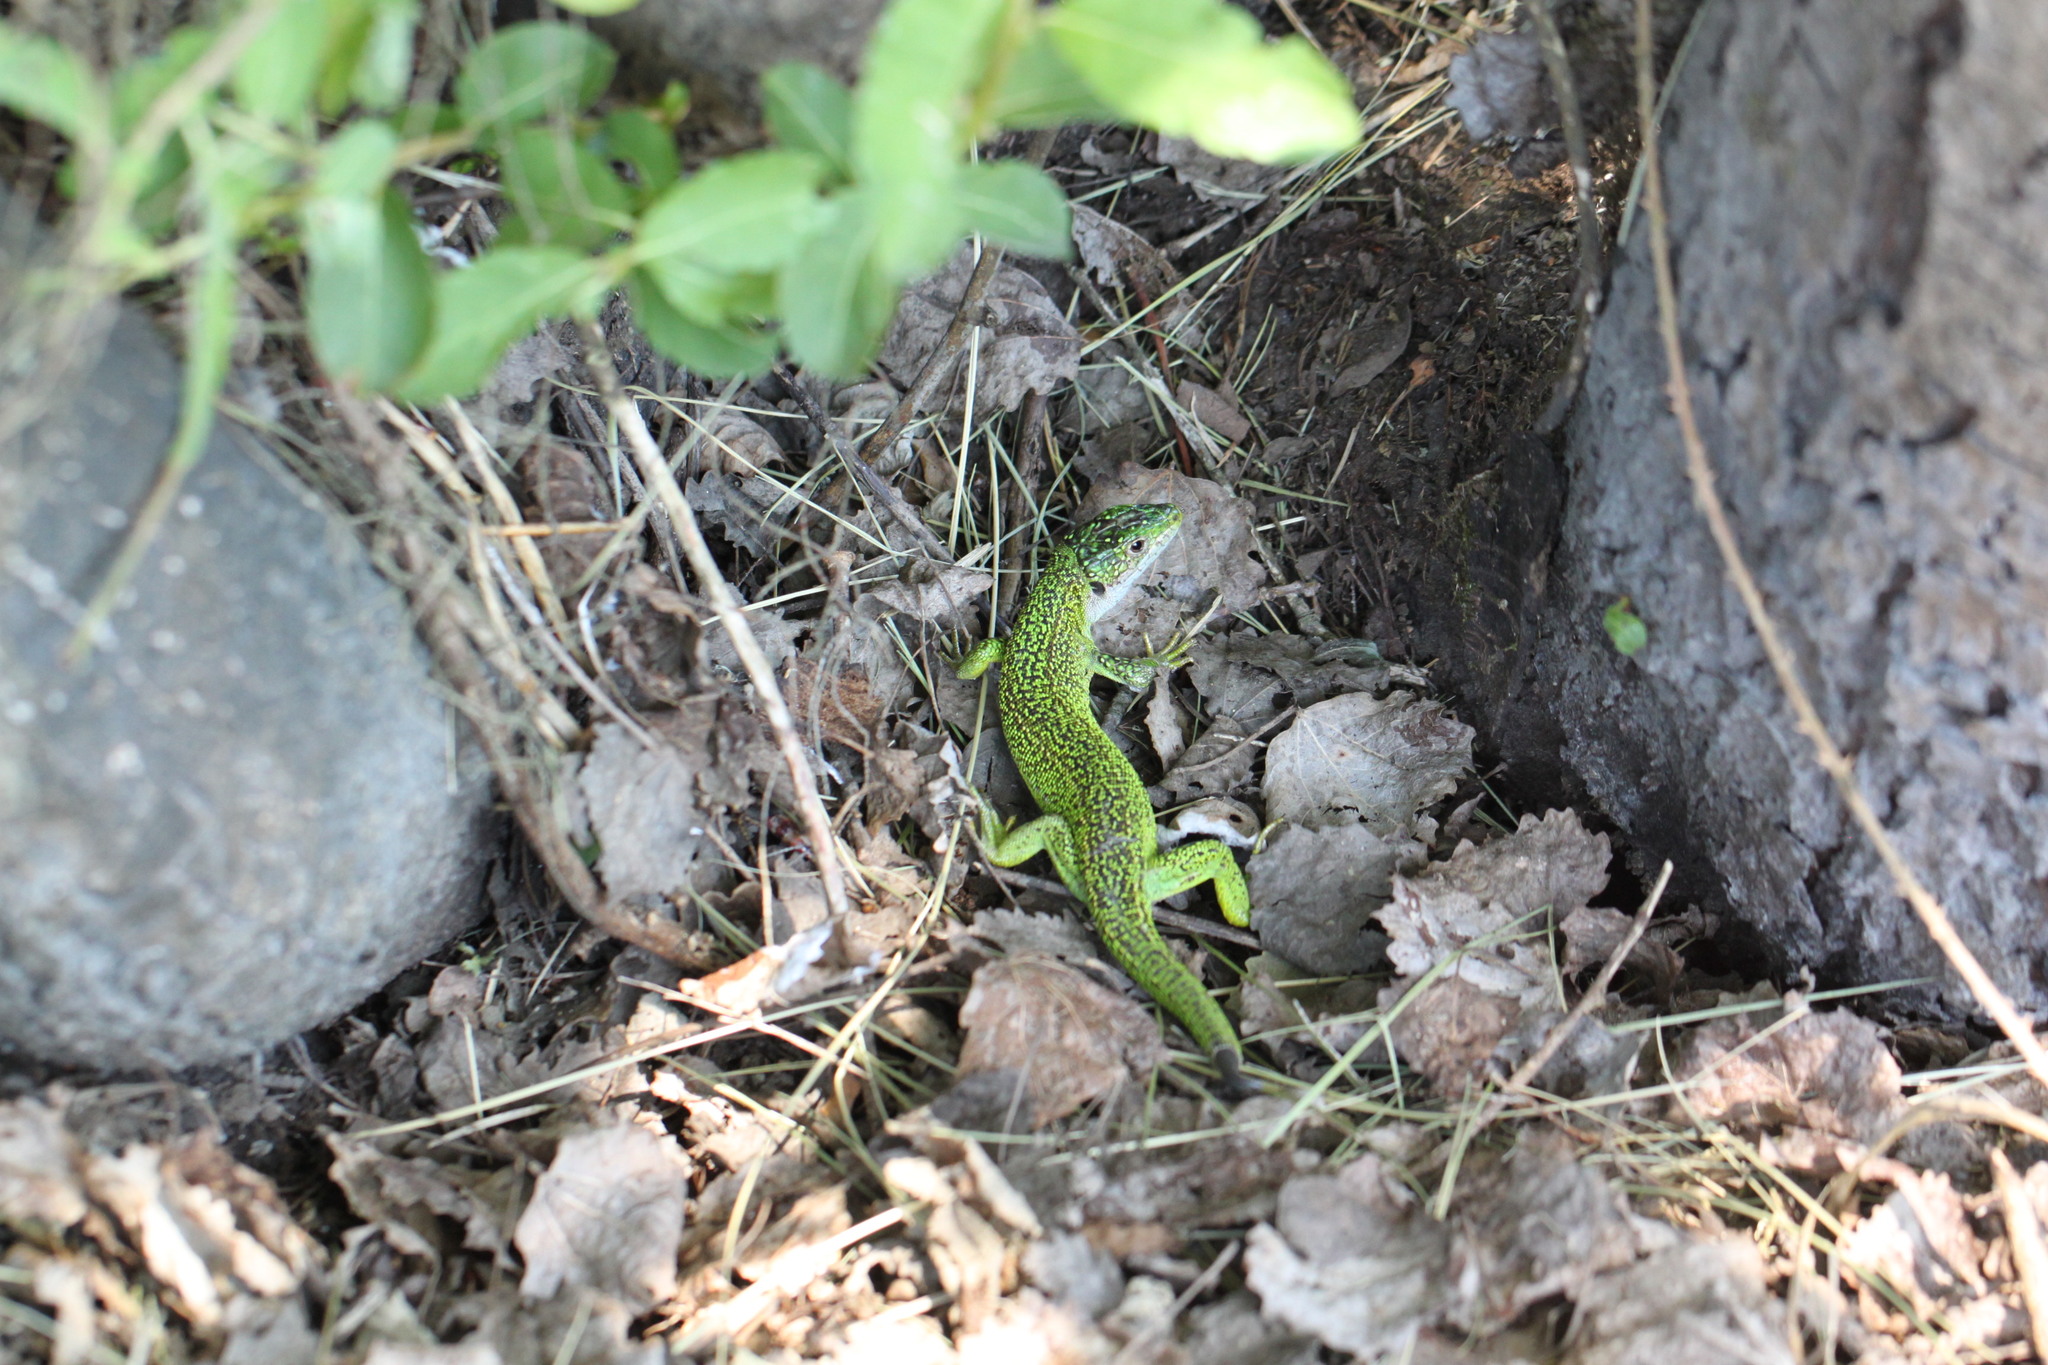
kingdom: Animalia
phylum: Chordata
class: Squamata
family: Lacertidae
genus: Lacerta
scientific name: Lacerta bilineata
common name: Western green lizard
